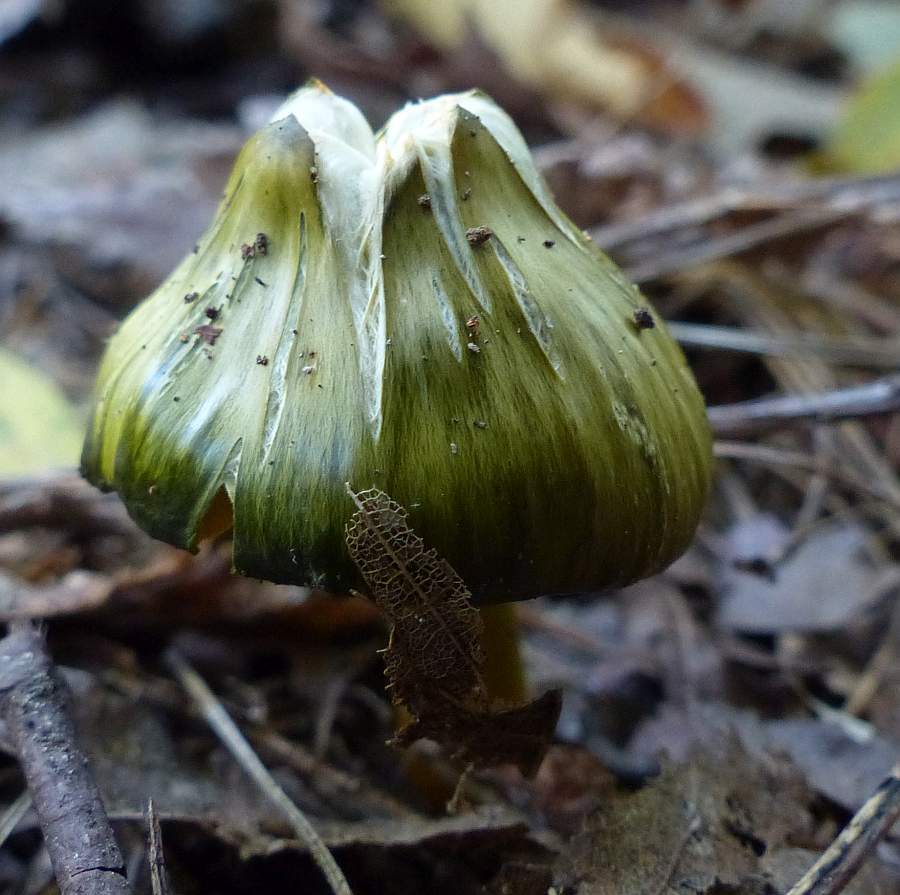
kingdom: Fungi
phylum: Basidiomycota
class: Agaricomycetes
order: Agaricales
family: Hygrophoraceae
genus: Gliophorus
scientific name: Gliophorus psittacinus
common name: Parrot wax-cap
